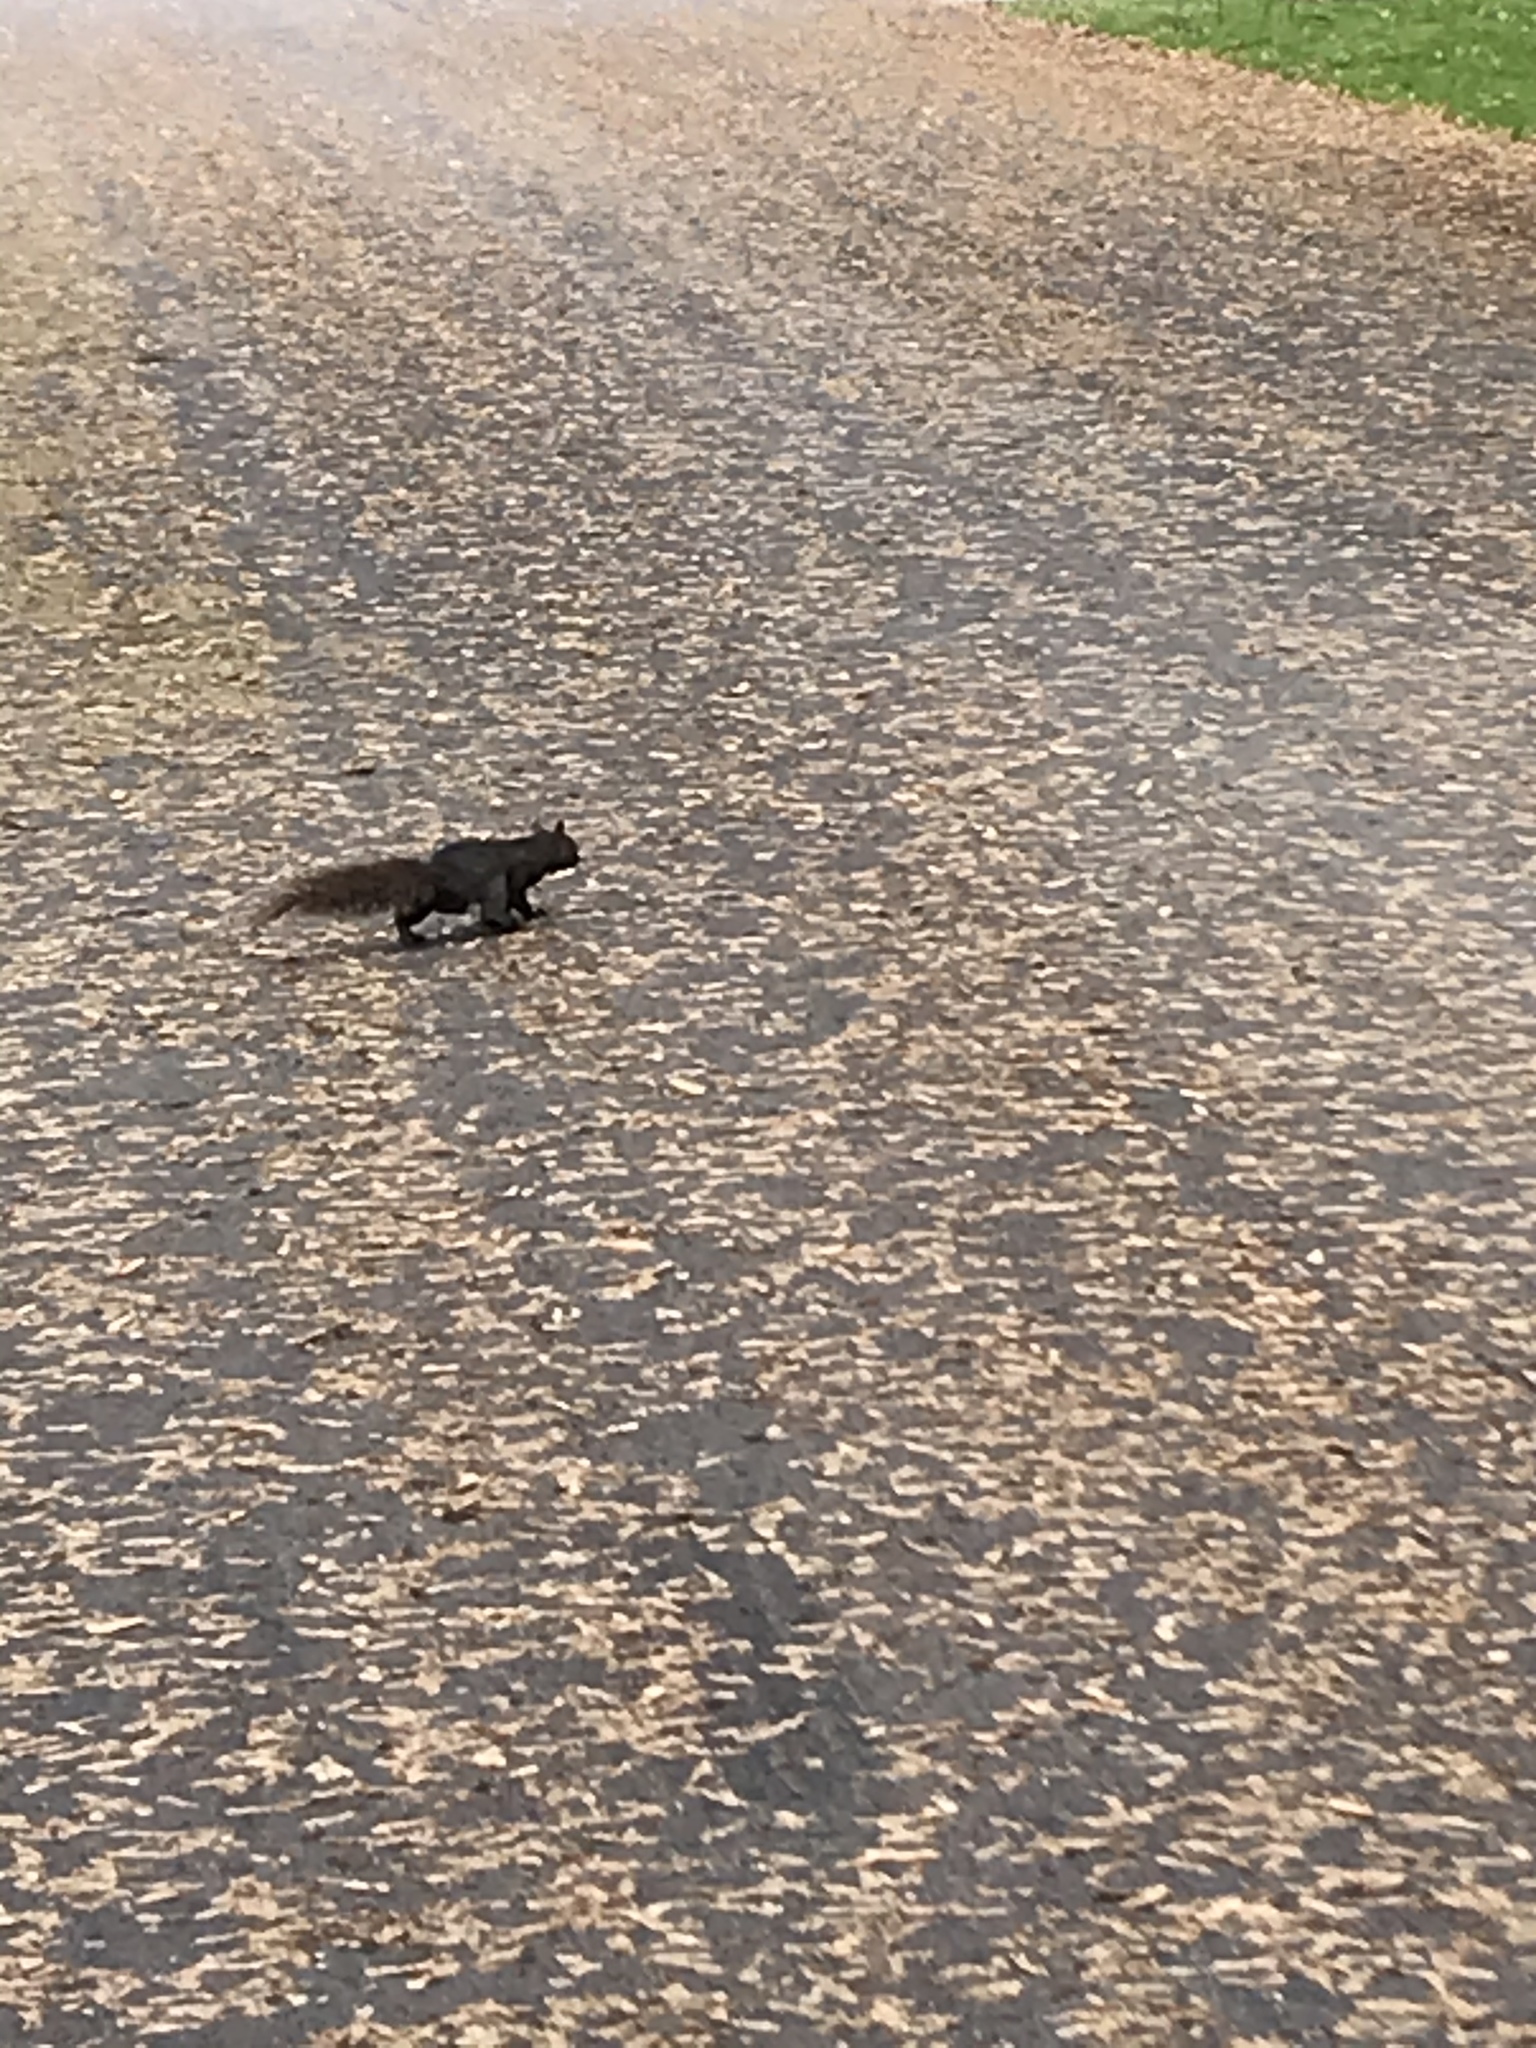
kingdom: Animalia
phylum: Chordata
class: Mammalia
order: Rodentia
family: Sciuridae
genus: Sciurus
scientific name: Sciurus carolinensis
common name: Eastern gray squirrel
